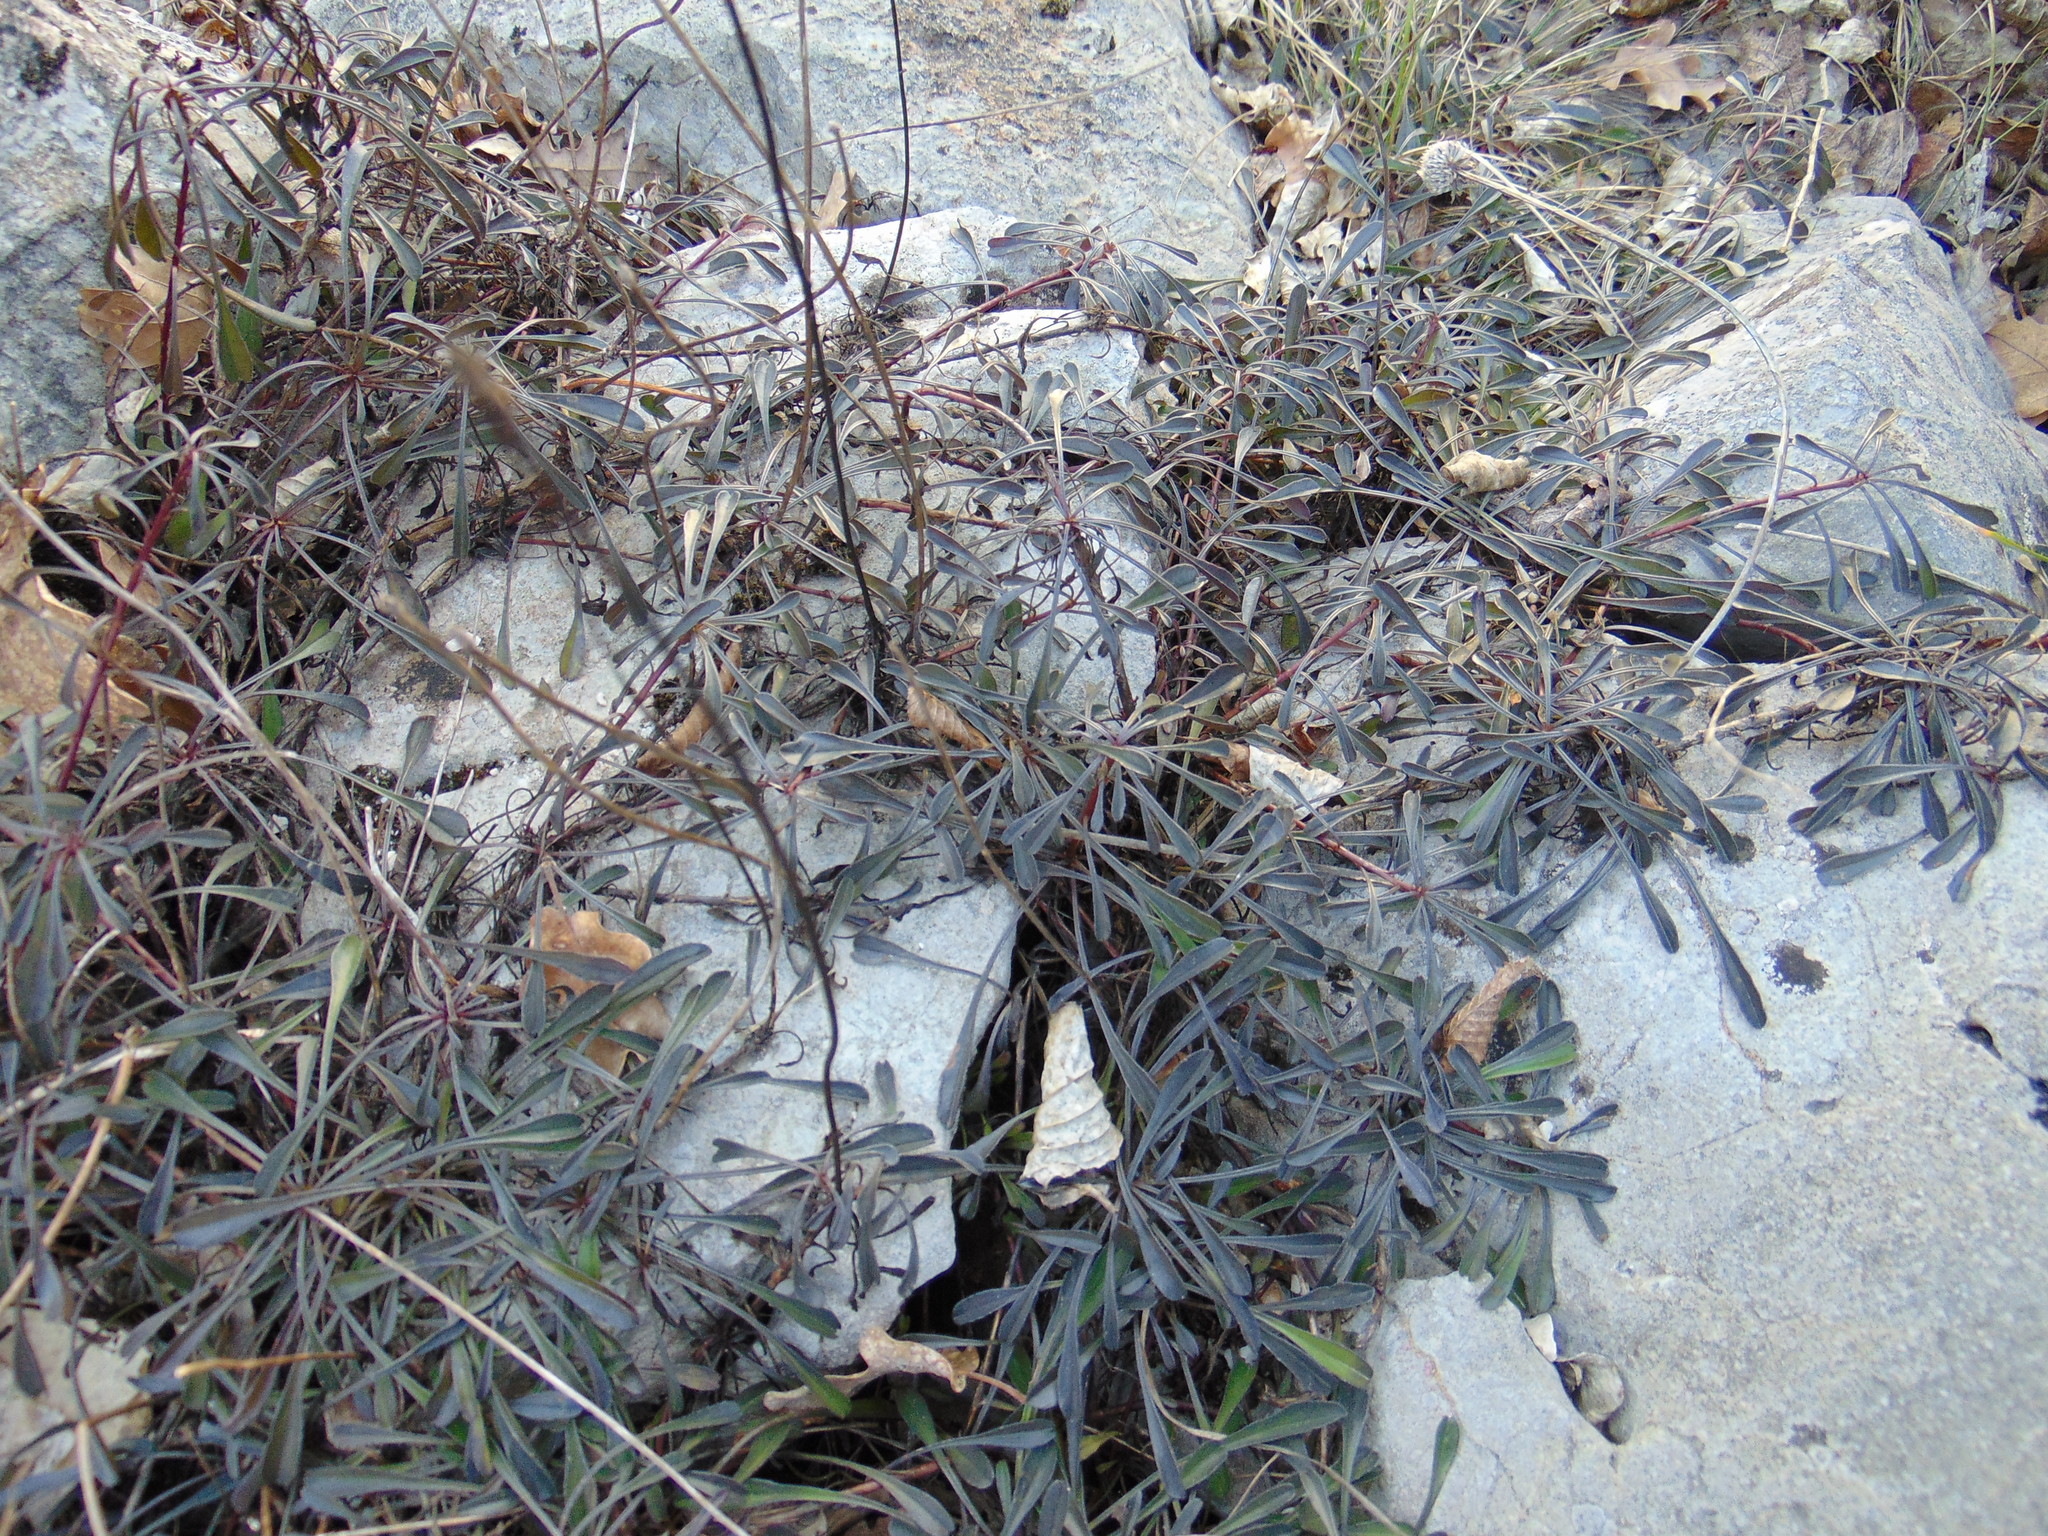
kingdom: Plantae
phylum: Tracheophyta
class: Magnoliopsida
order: Lamiales
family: Plantaginaceae
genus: Globularia
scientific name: Globularia cordifolia
